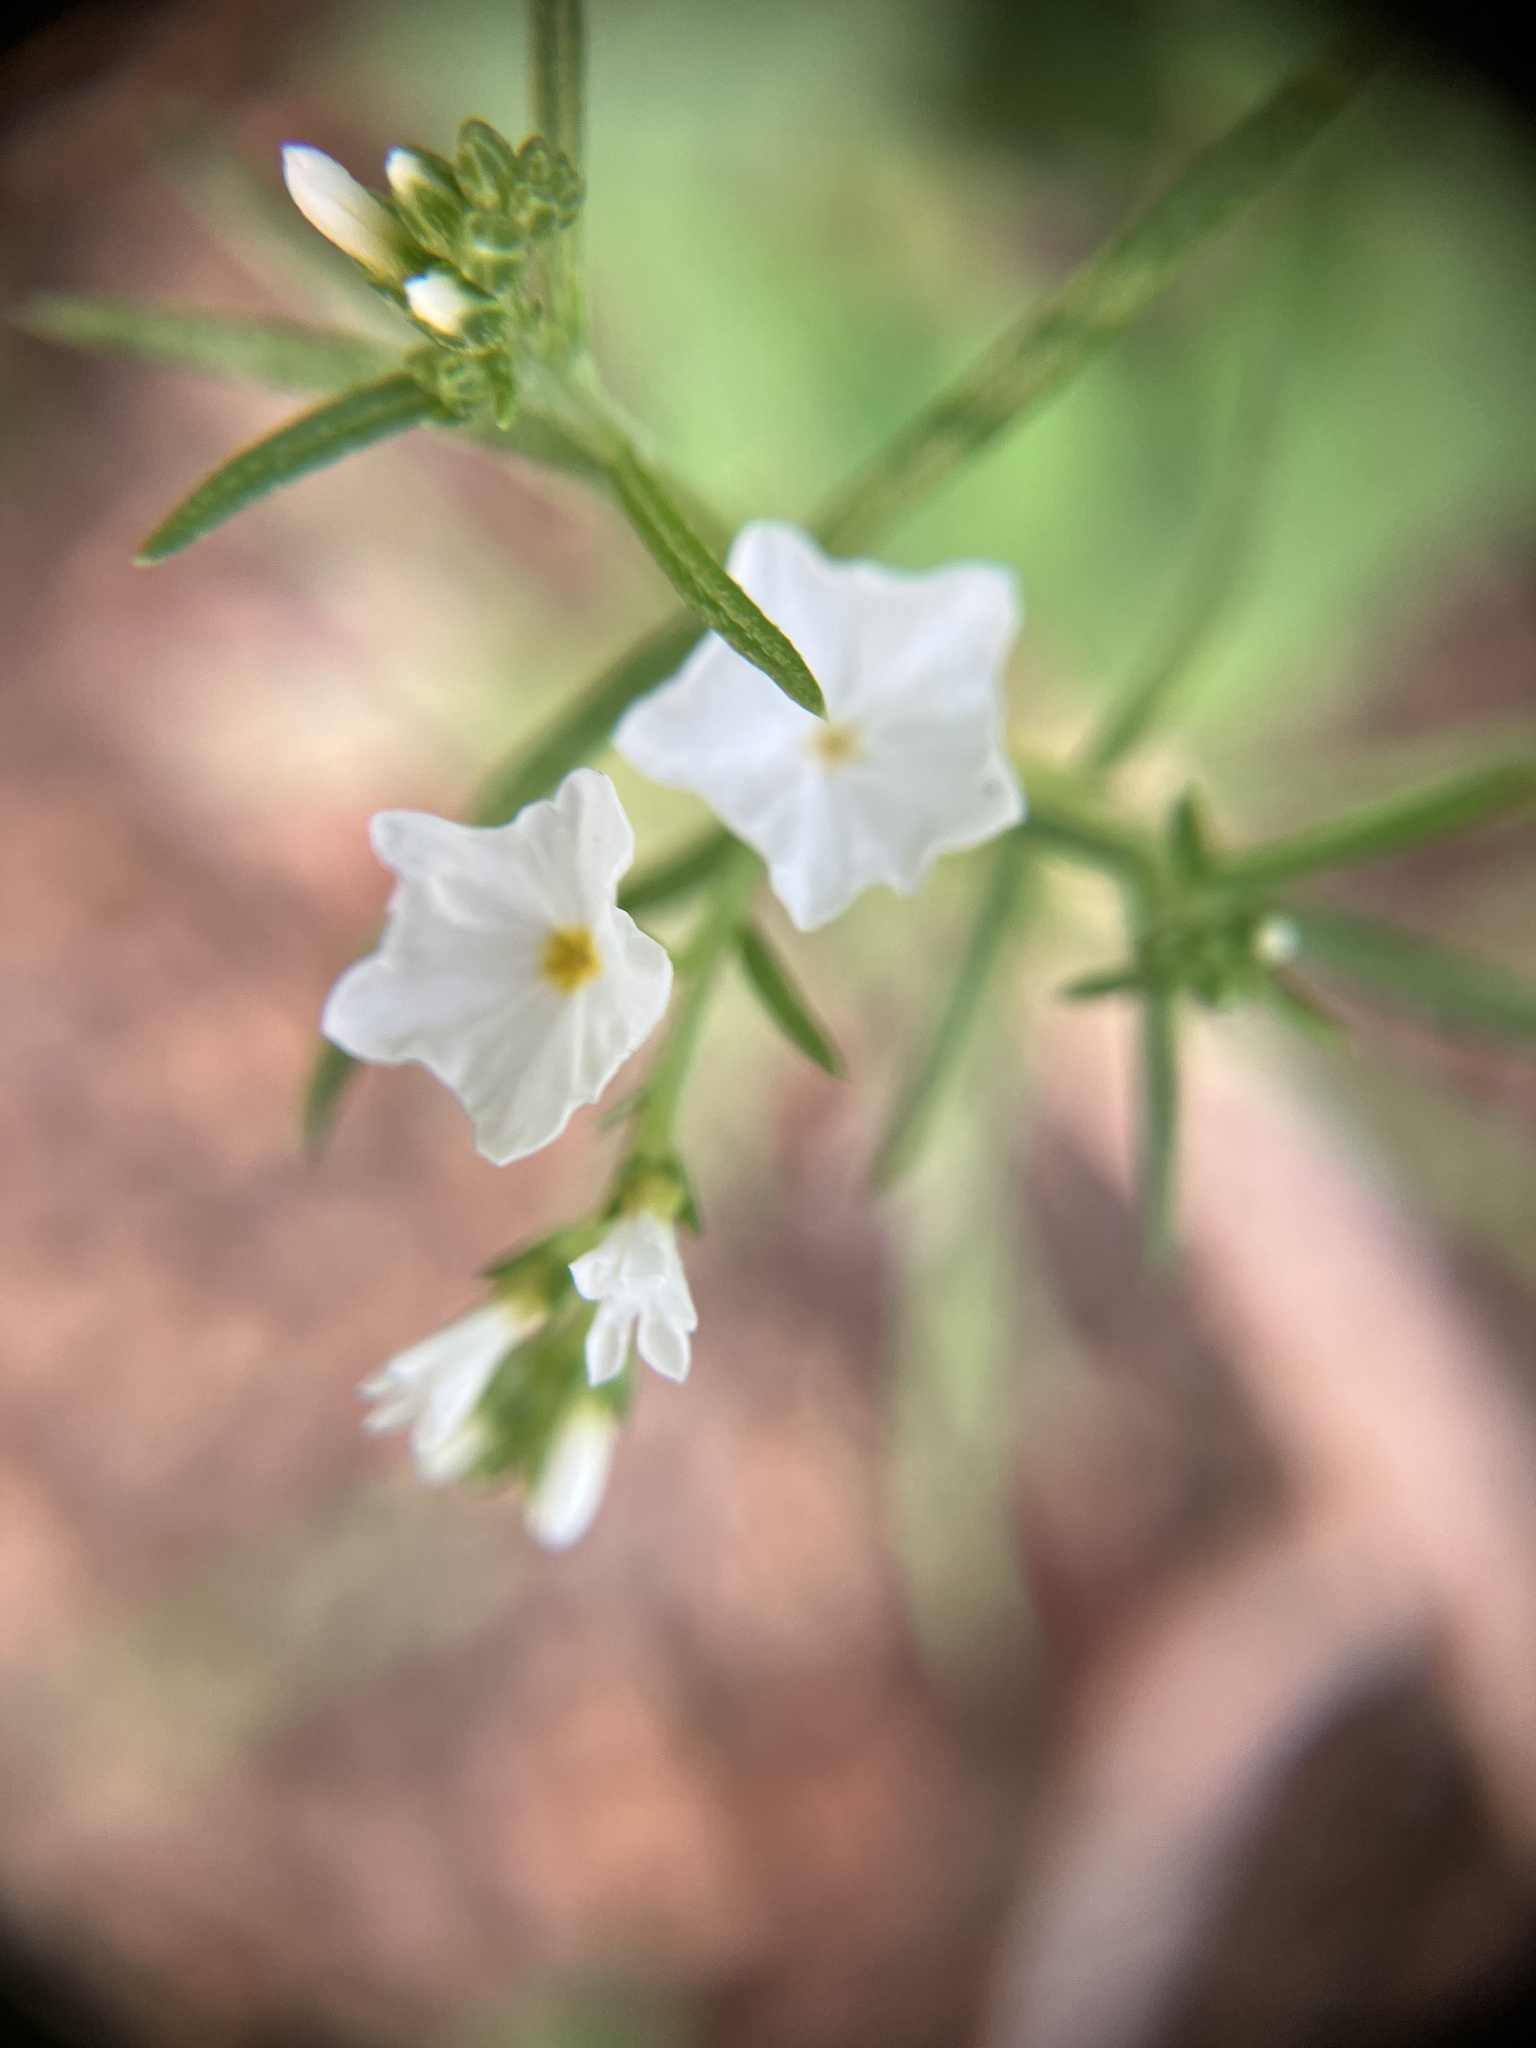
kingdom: Plantae
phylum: Tracheophyta
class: Magnoliopsida
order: Boraginales
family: Heliotropiaceae
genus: Euploca
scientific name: Euploca strigosa
